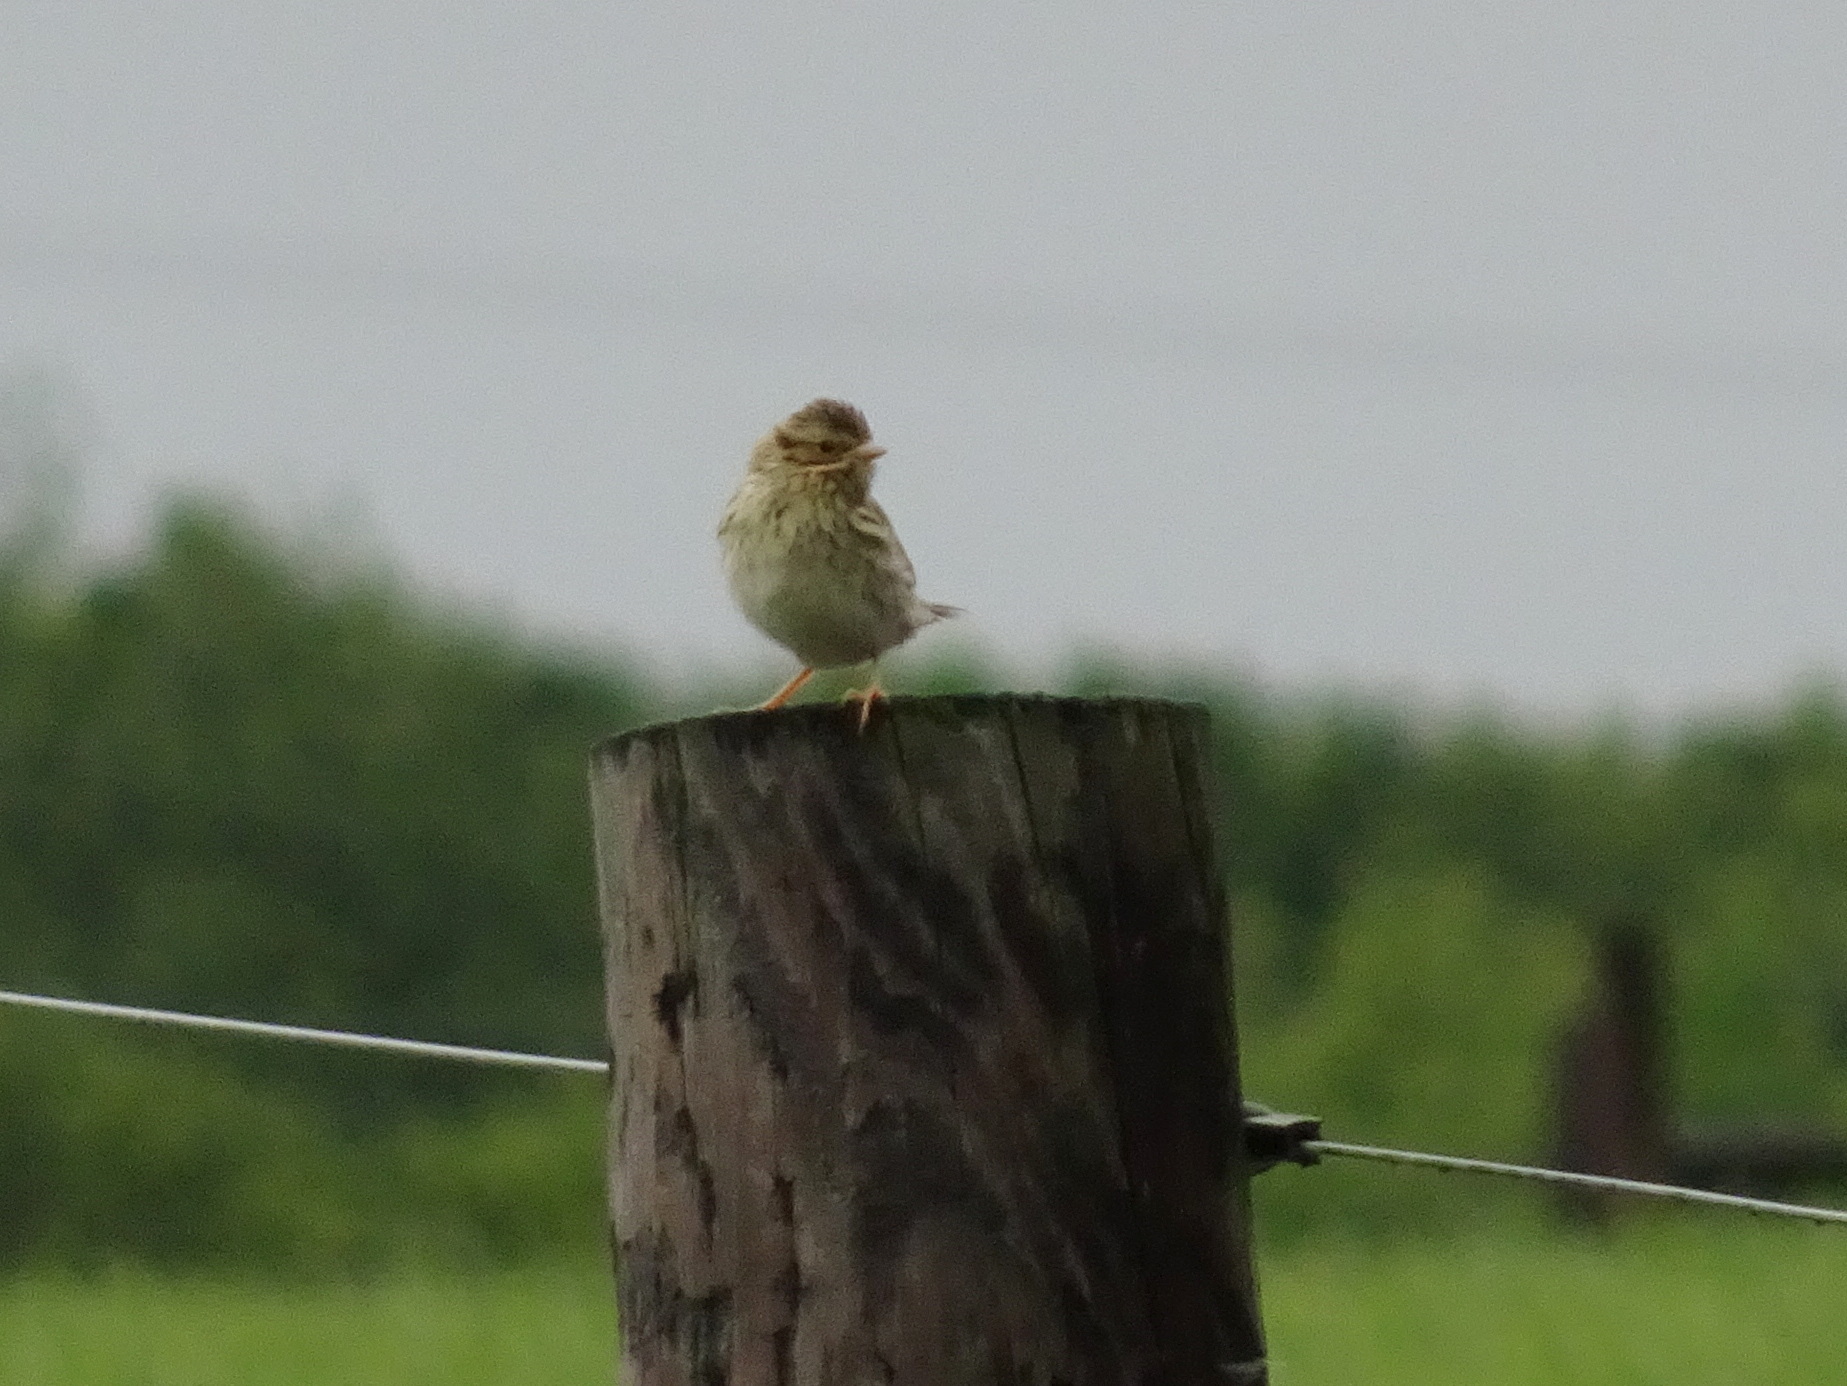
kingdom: Animalia
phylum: Chordata
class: Aves
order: Passeriformes
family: Passerellidae
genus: Passerculus
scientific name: Passerculus sandwichensis
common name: Savannah sparrow
